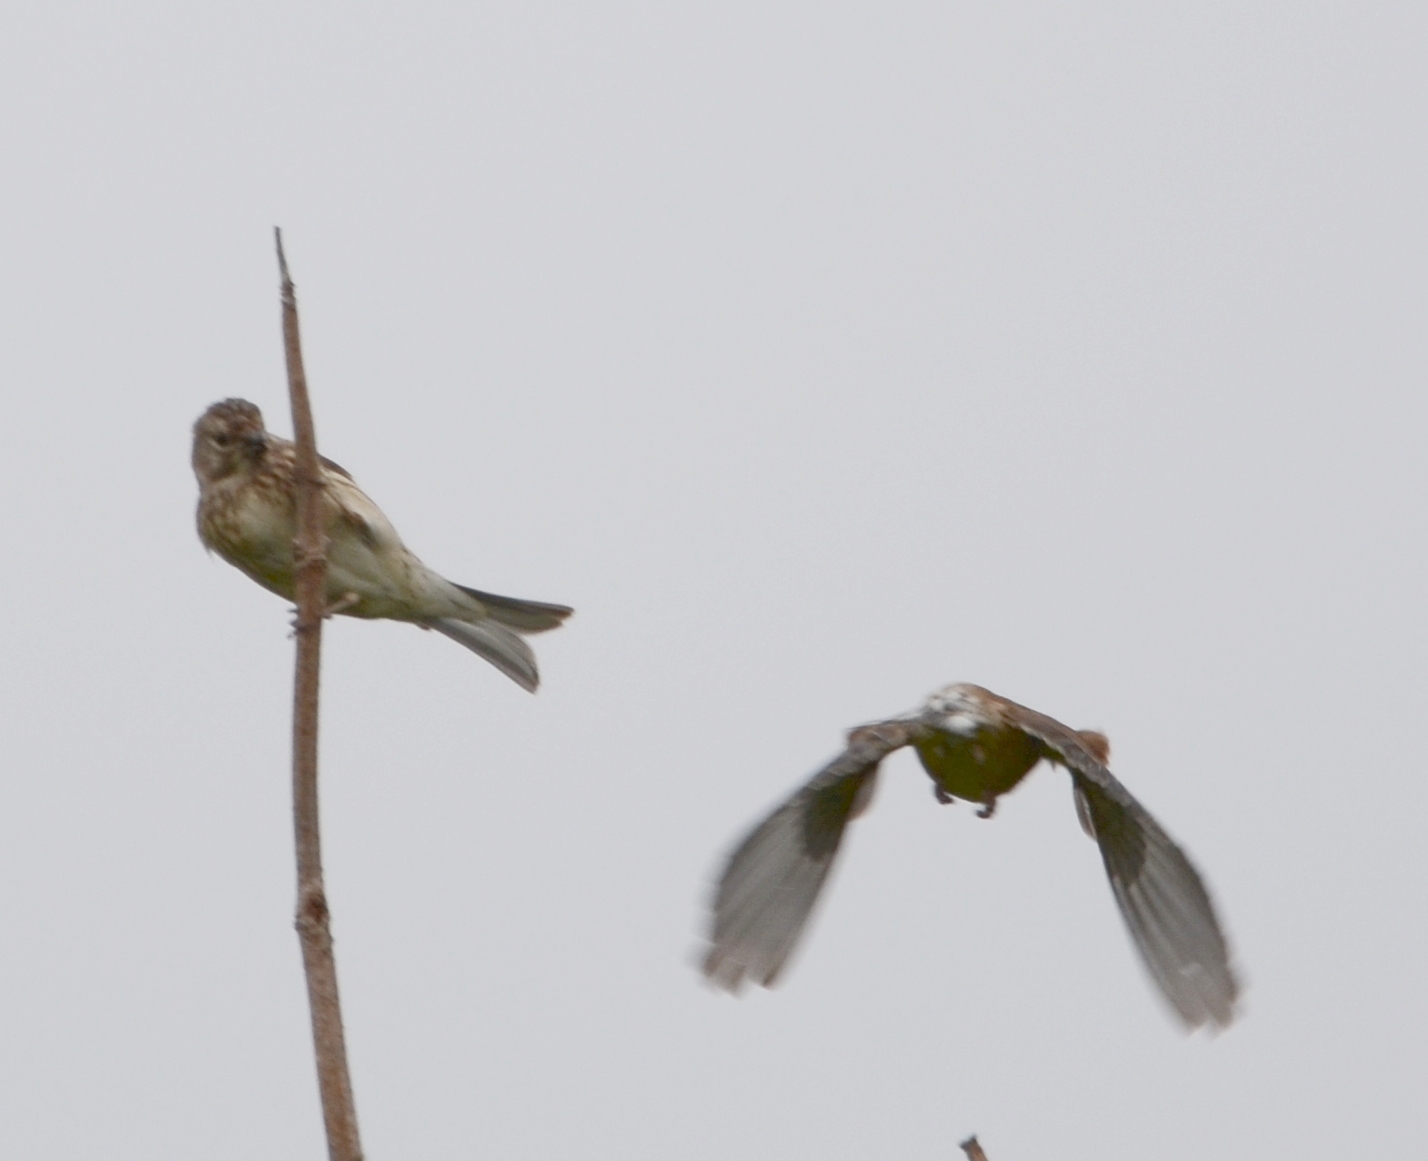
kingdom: Animalia
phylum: Chordata
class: Aves
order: Passeriformes
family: Fringillidae
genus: Linaria
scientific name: Linaria cannabina
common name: Common linnet
